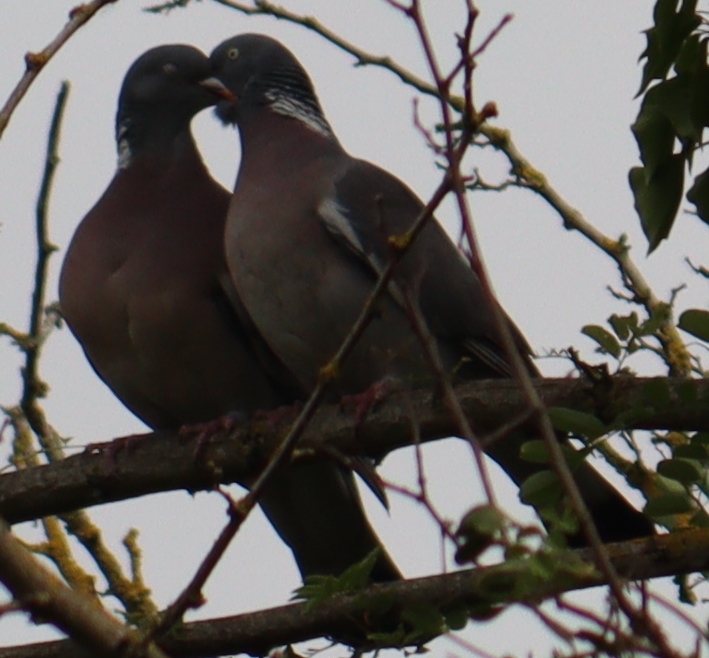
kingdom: Animalia
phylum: Chordata
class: Aves
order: Columbiformes
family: Columbidae
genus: Columba
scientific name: Columba palumbus
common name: Common wood pigeon
